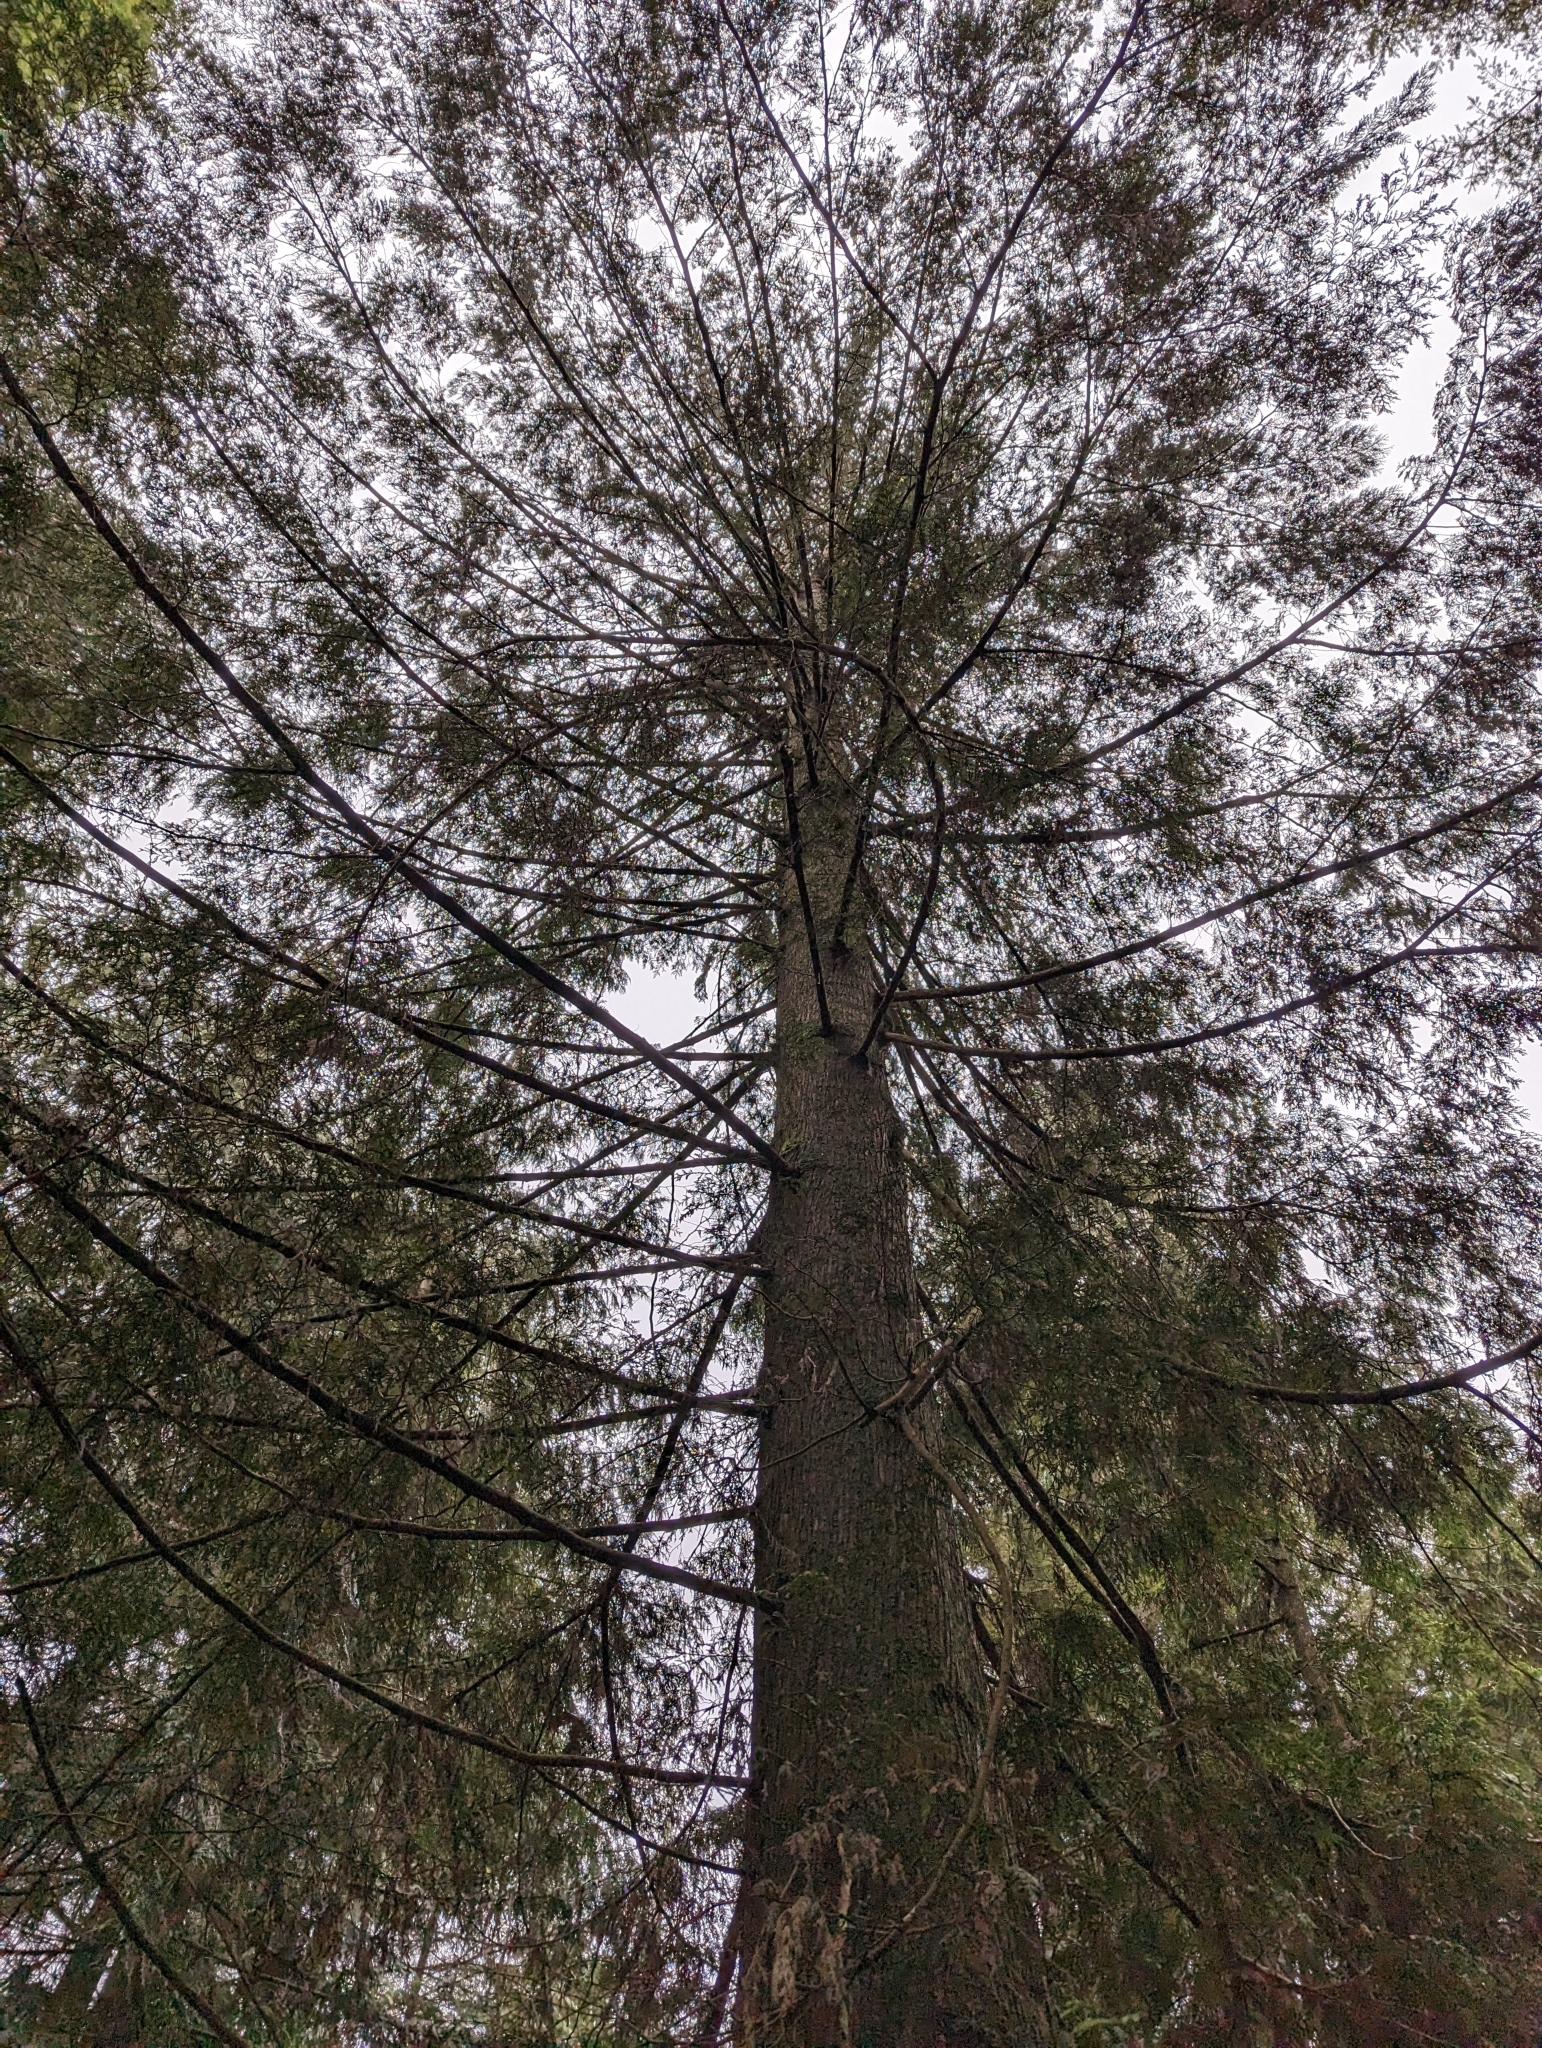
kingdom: Plantae
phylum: Tracheophyta
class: Pinopsida
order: Pinales
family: Cupressaceae
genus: Thuja
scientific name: Thuja plicata
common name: Western red-cedar
